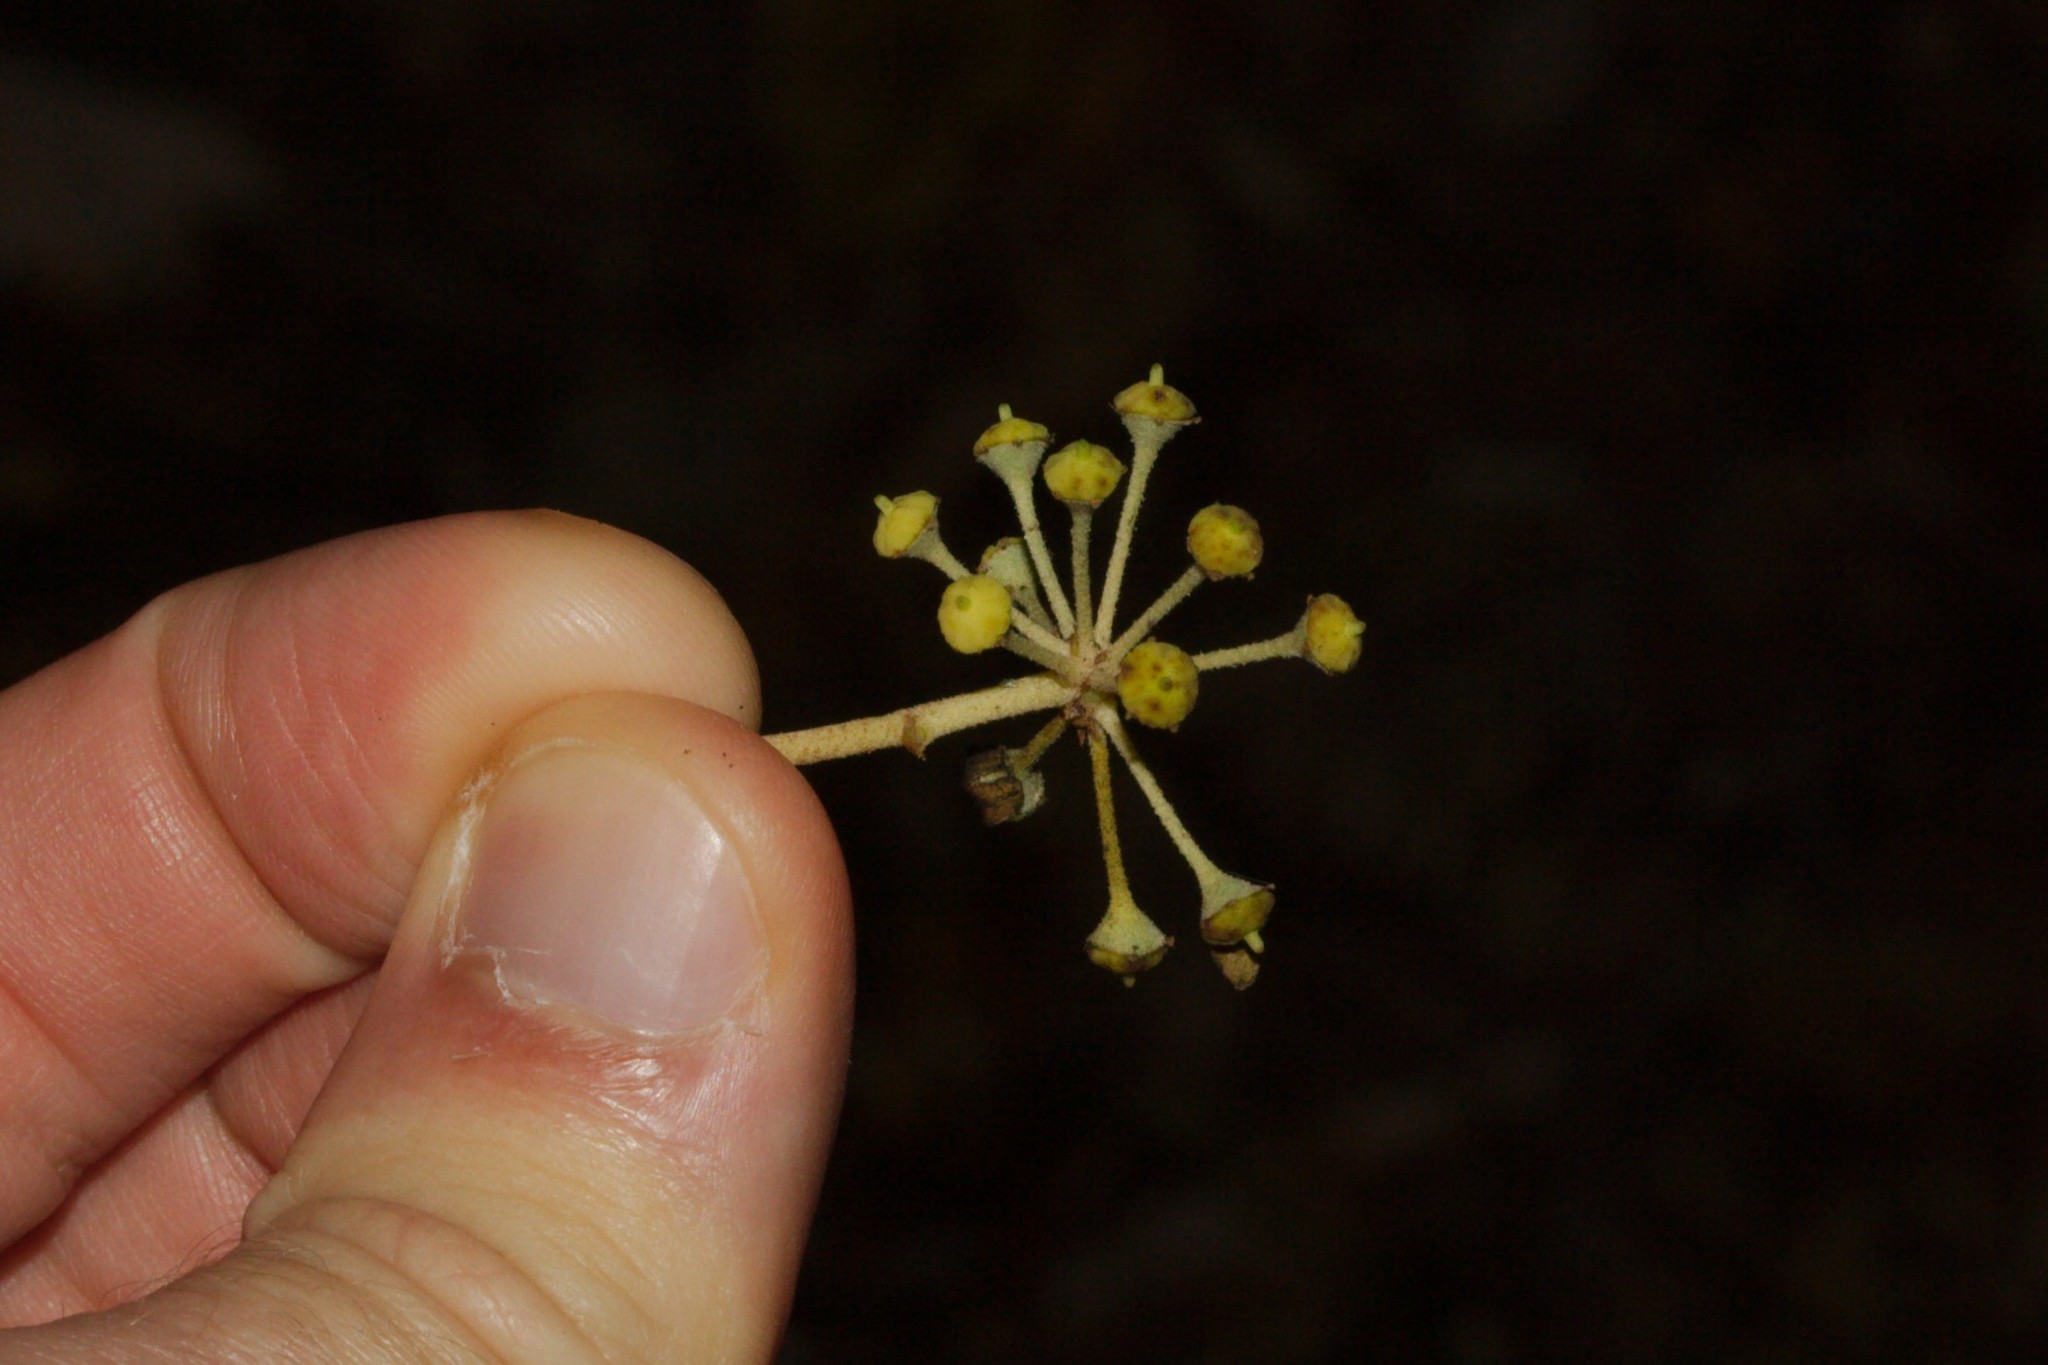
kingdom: Plantae
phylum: Tracheophyta
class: Magnoliopsida
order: Apiales
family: Araliaceae
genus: Hedera
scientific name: Hedera helix
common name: Ivy
